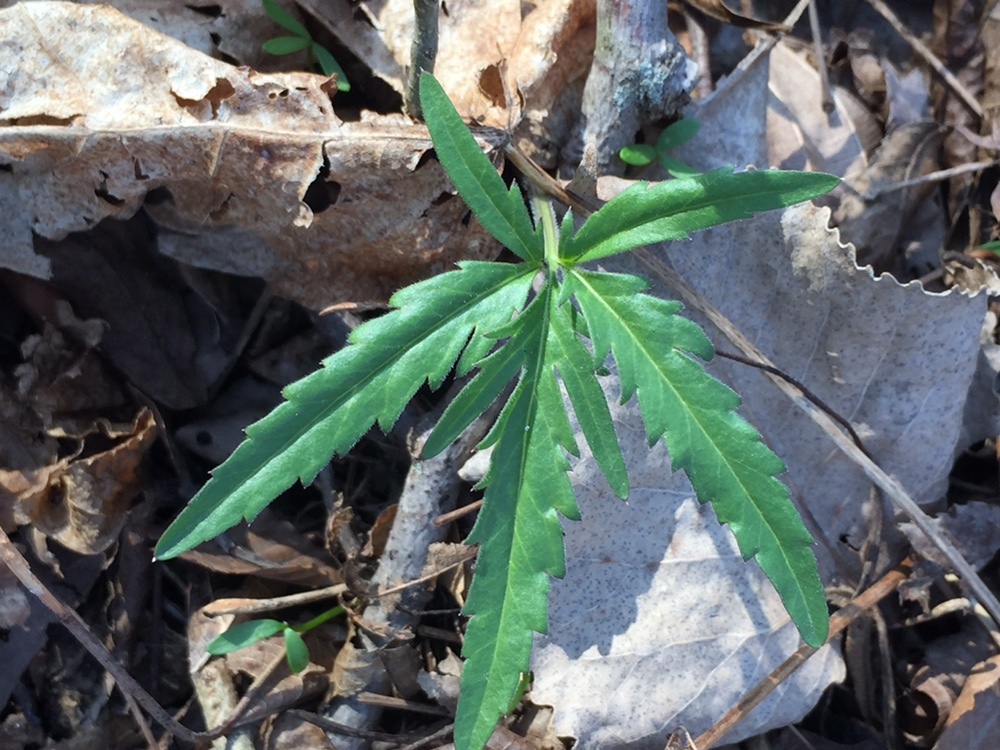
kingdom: Plantae
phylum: Tracheophyta
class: Magnoliopsida
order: Brassicales
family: Brassicaceae
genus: Cardamine
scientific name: Cardamine concatenata
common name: Cut-leaf toothcup
